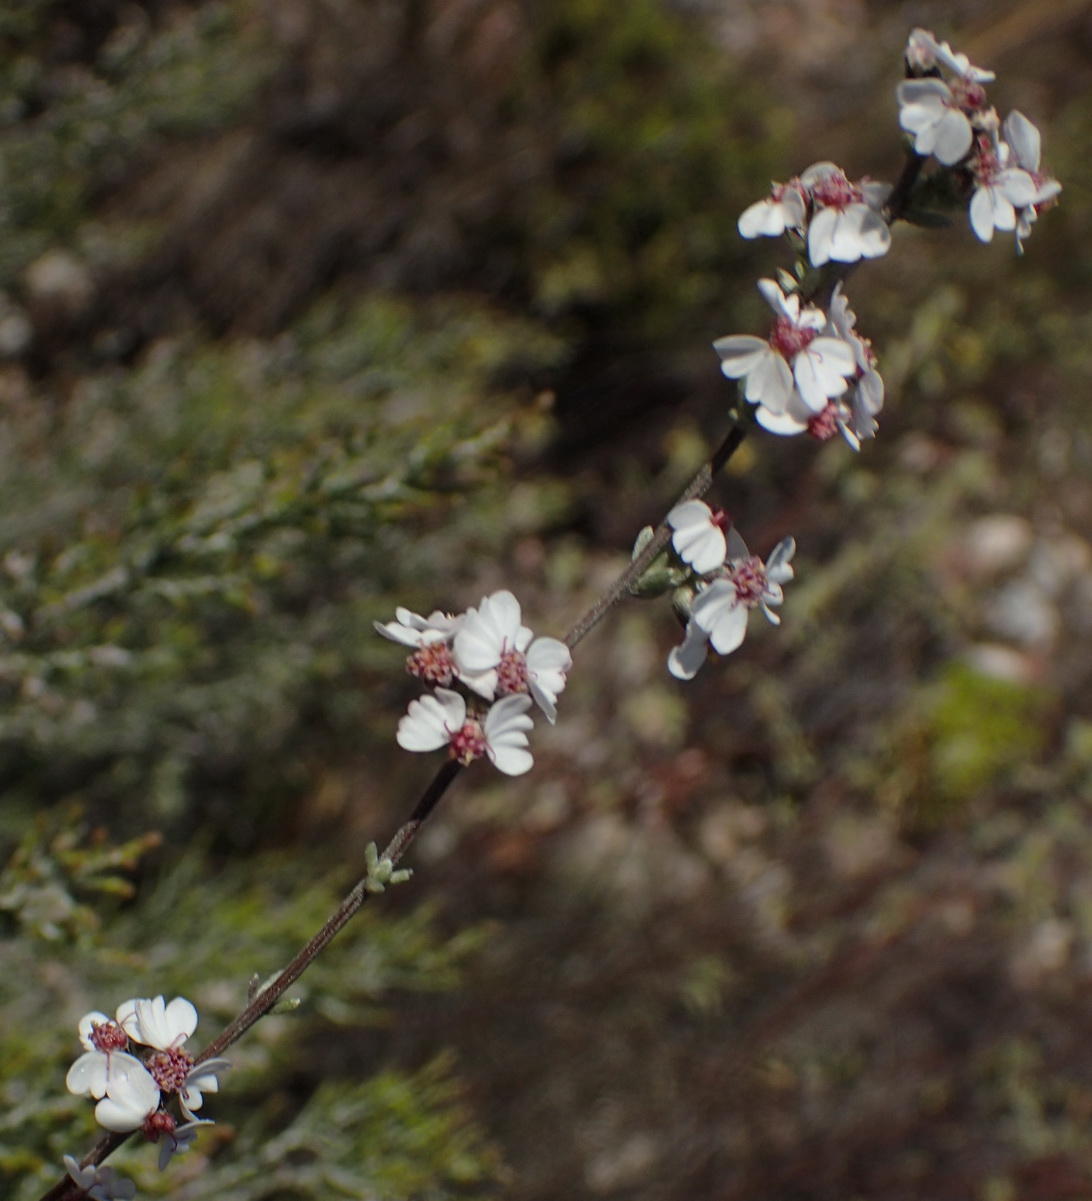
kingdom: Plantae
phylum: Tracheophyta
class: Magnoliopsida
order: Asterales
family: Asteraceae
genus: Eriocephalus
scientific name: Eriocephalus africanus
